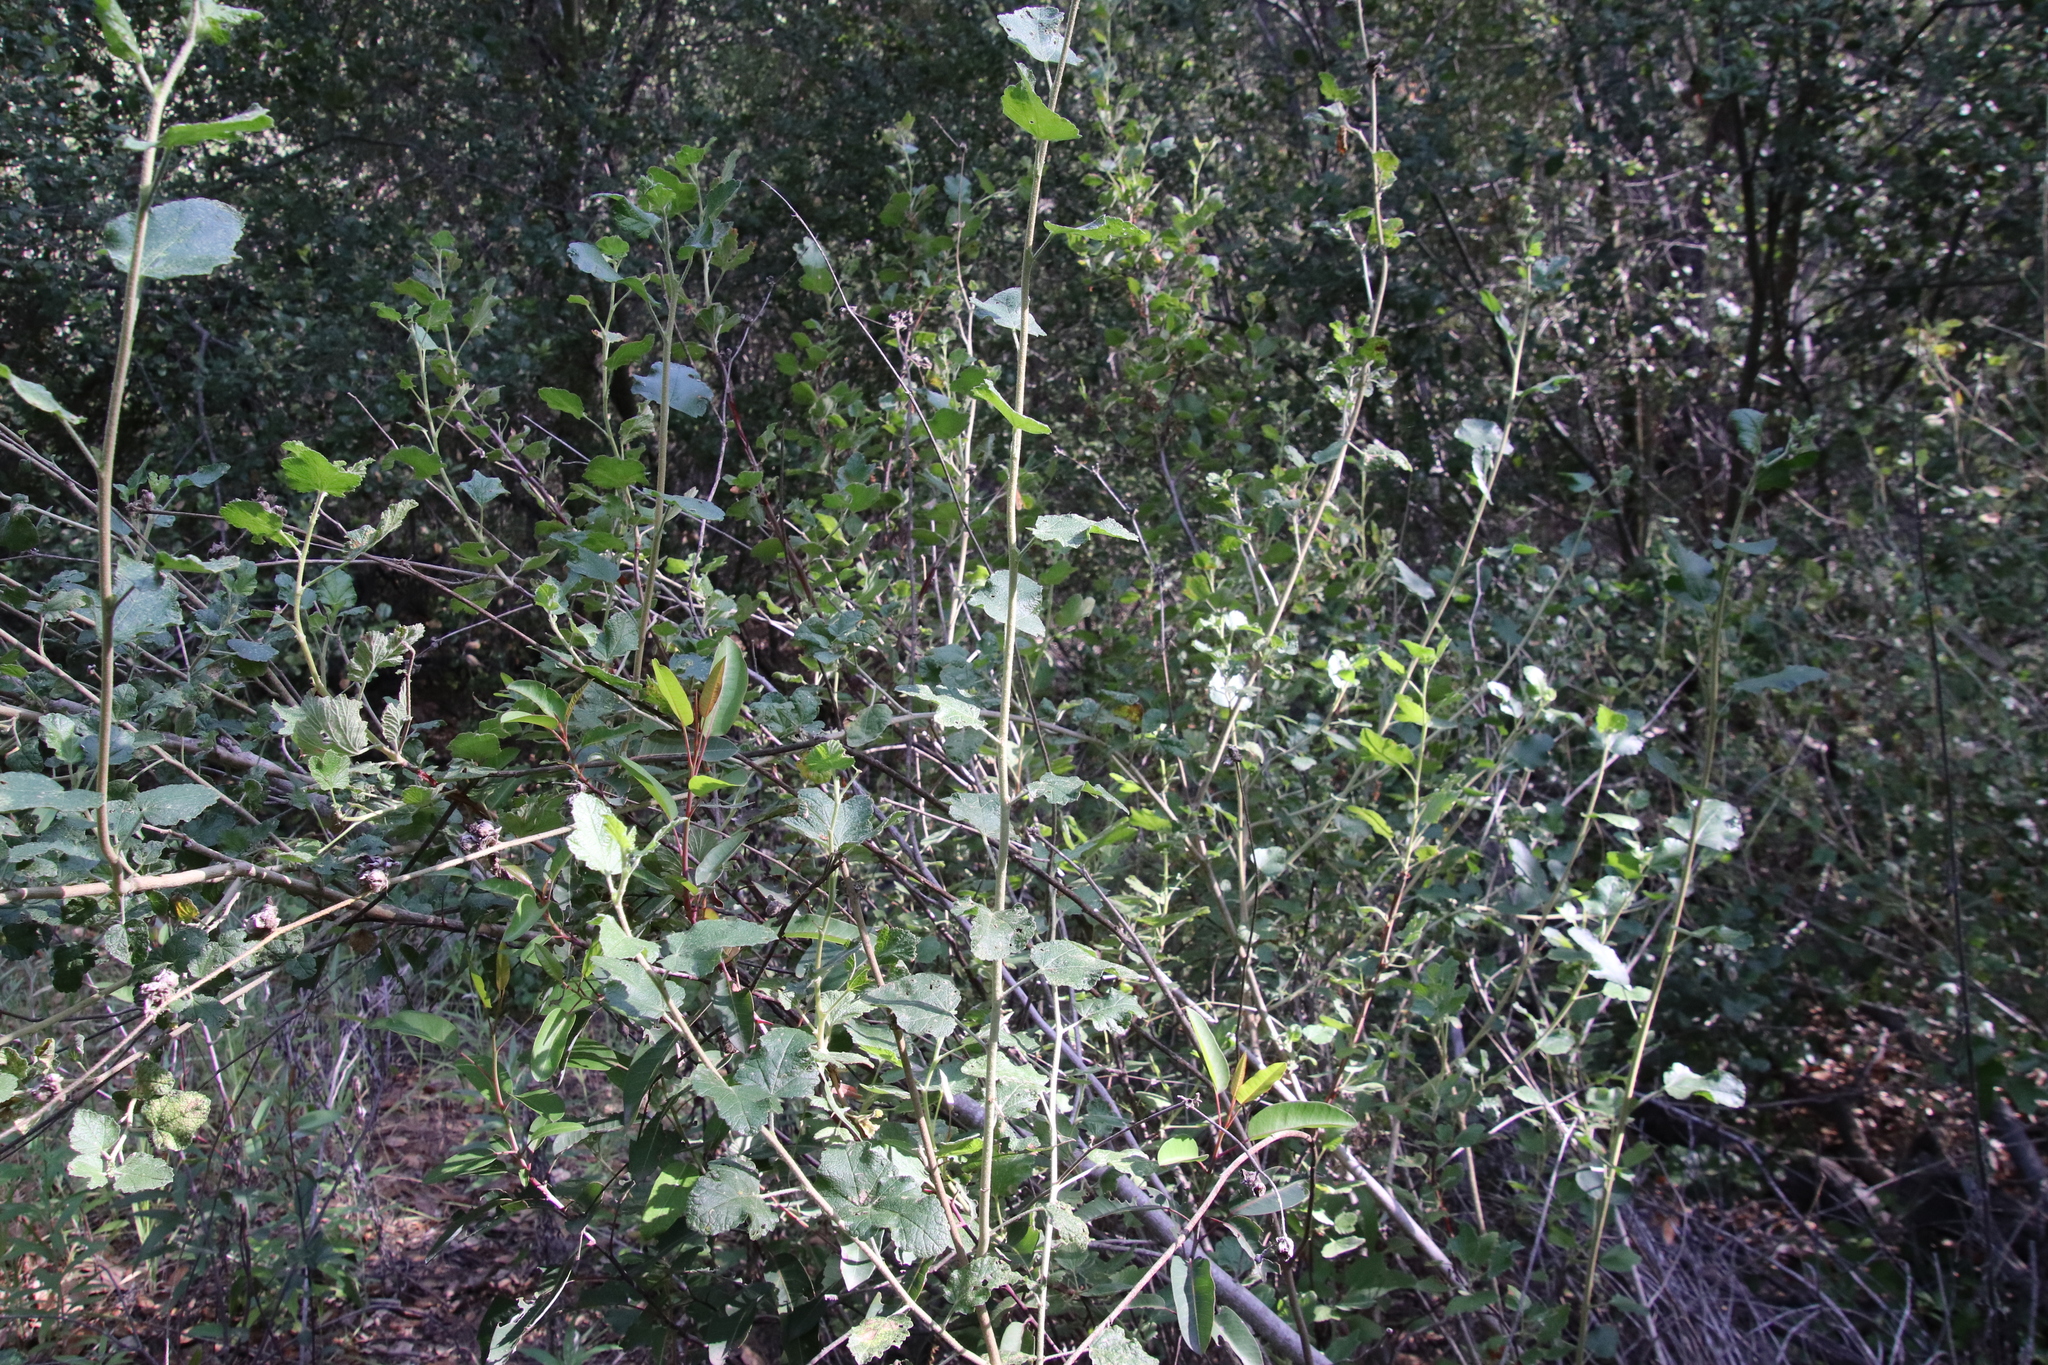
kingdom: Plantae
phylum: Tracheophyta
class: Magnoliopsida
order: Malvales
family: Malvaceae
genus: Malacothamnus
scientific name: Malacothamnus fasciculatus
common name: Sant cruz island bush-mallow
